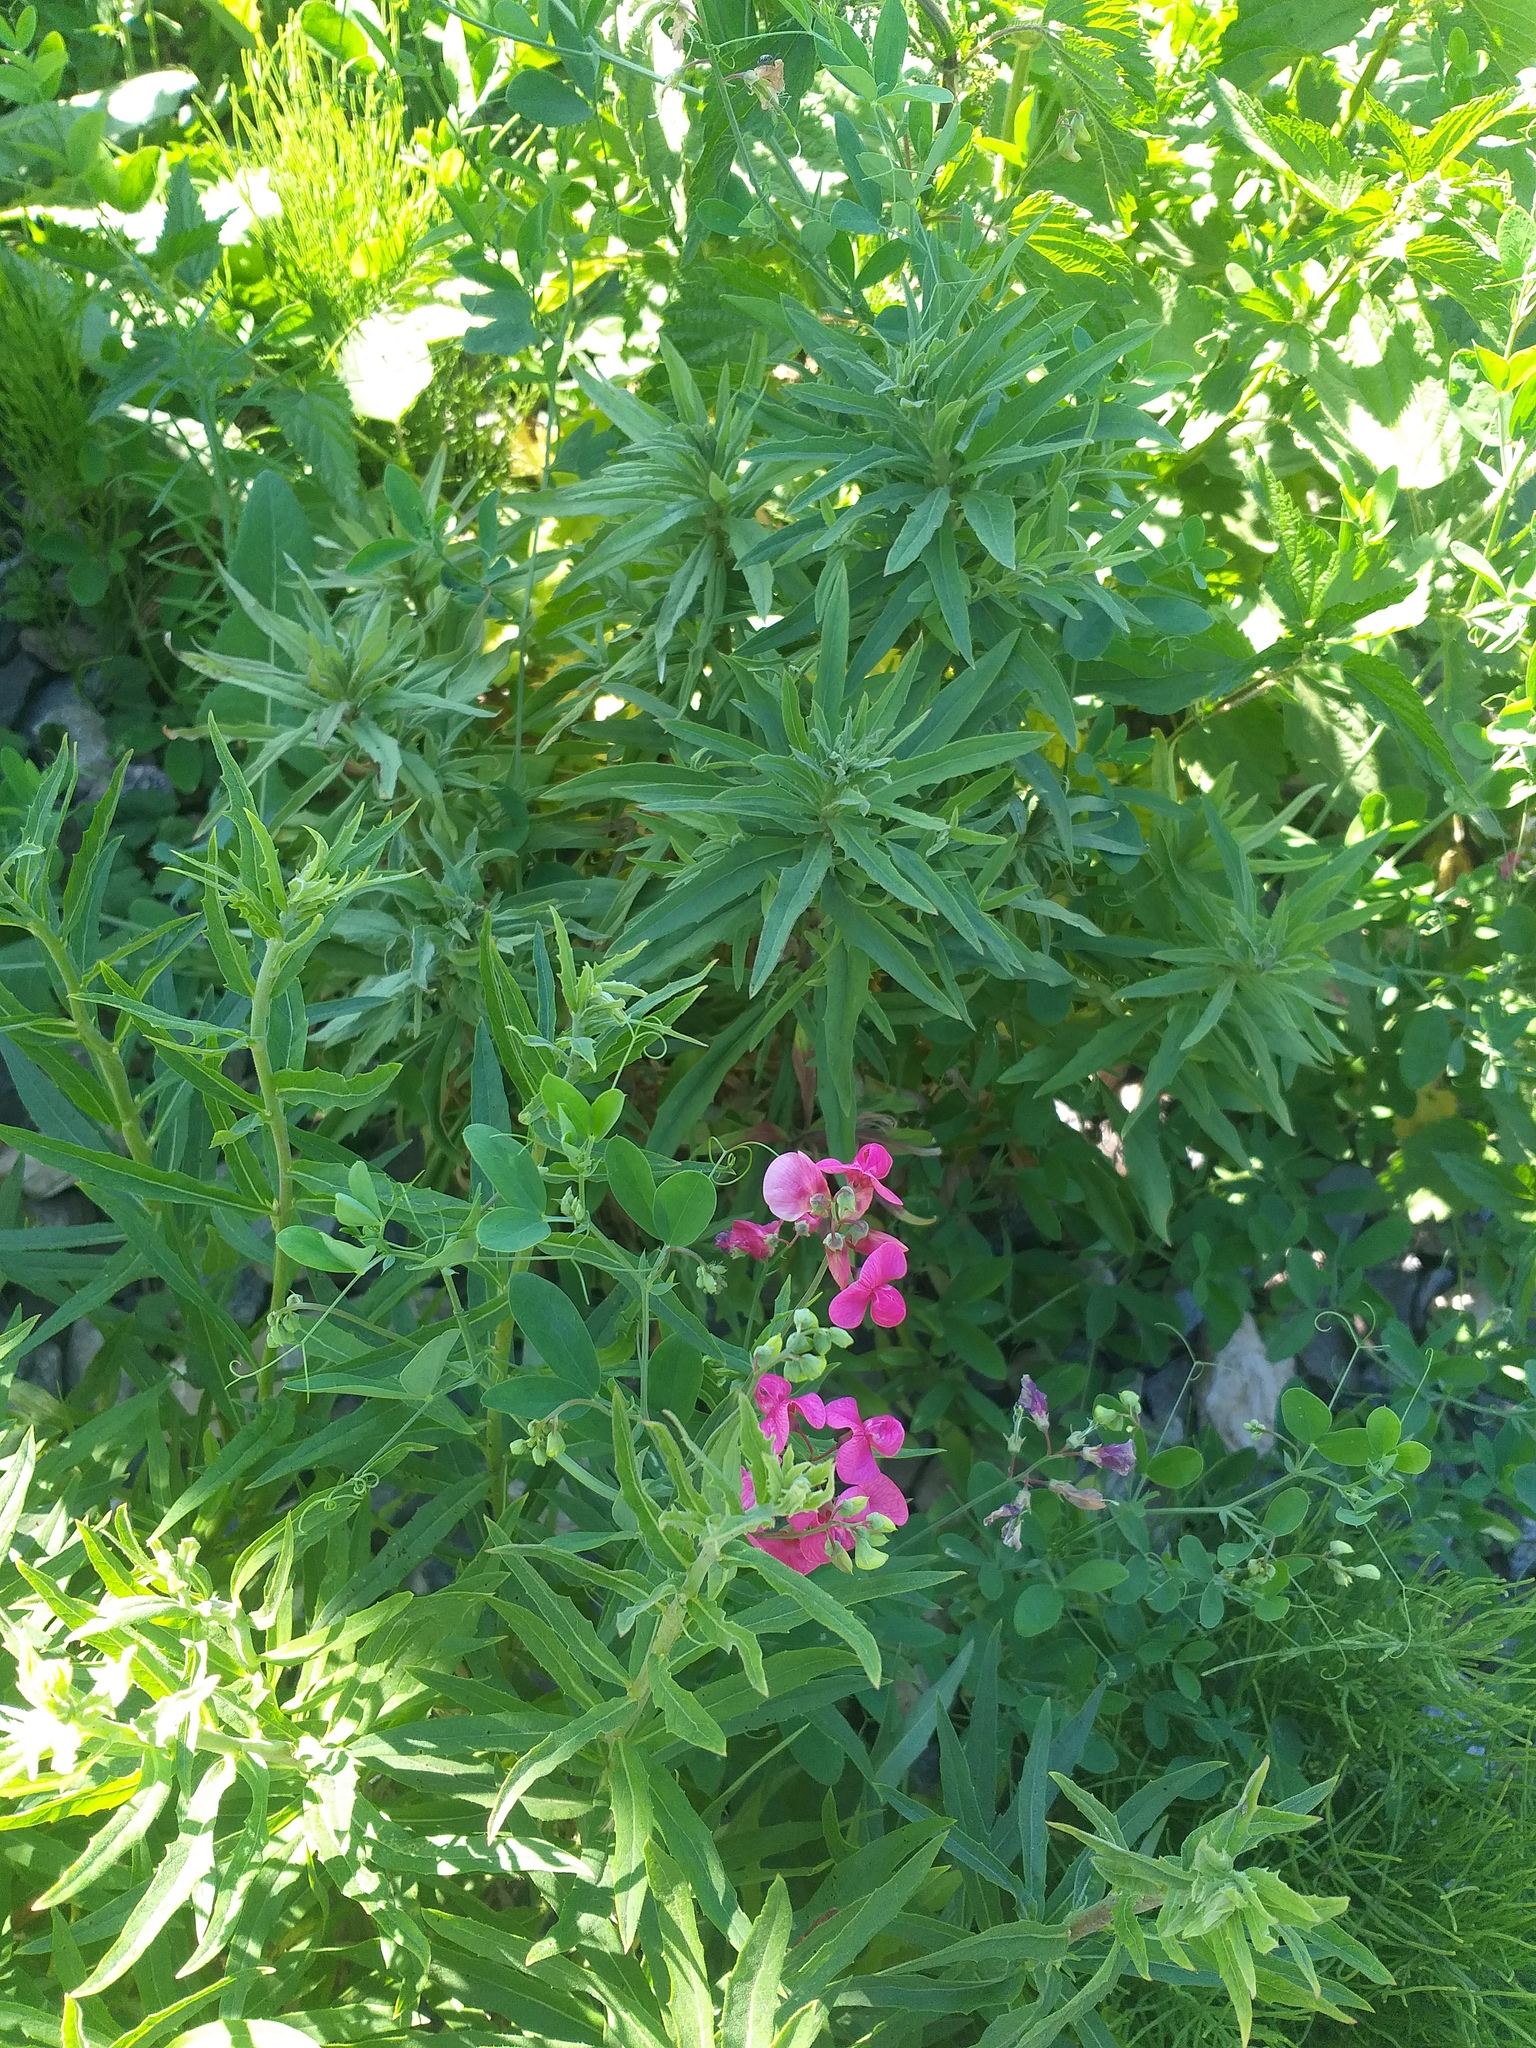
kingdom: Plantae
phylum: Tracheophyta
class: Magnoliopsida
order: Fabales
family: Fabaceae
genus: Lathyrus
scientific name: Lathyrus tuberosus
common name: Tuberous pea
